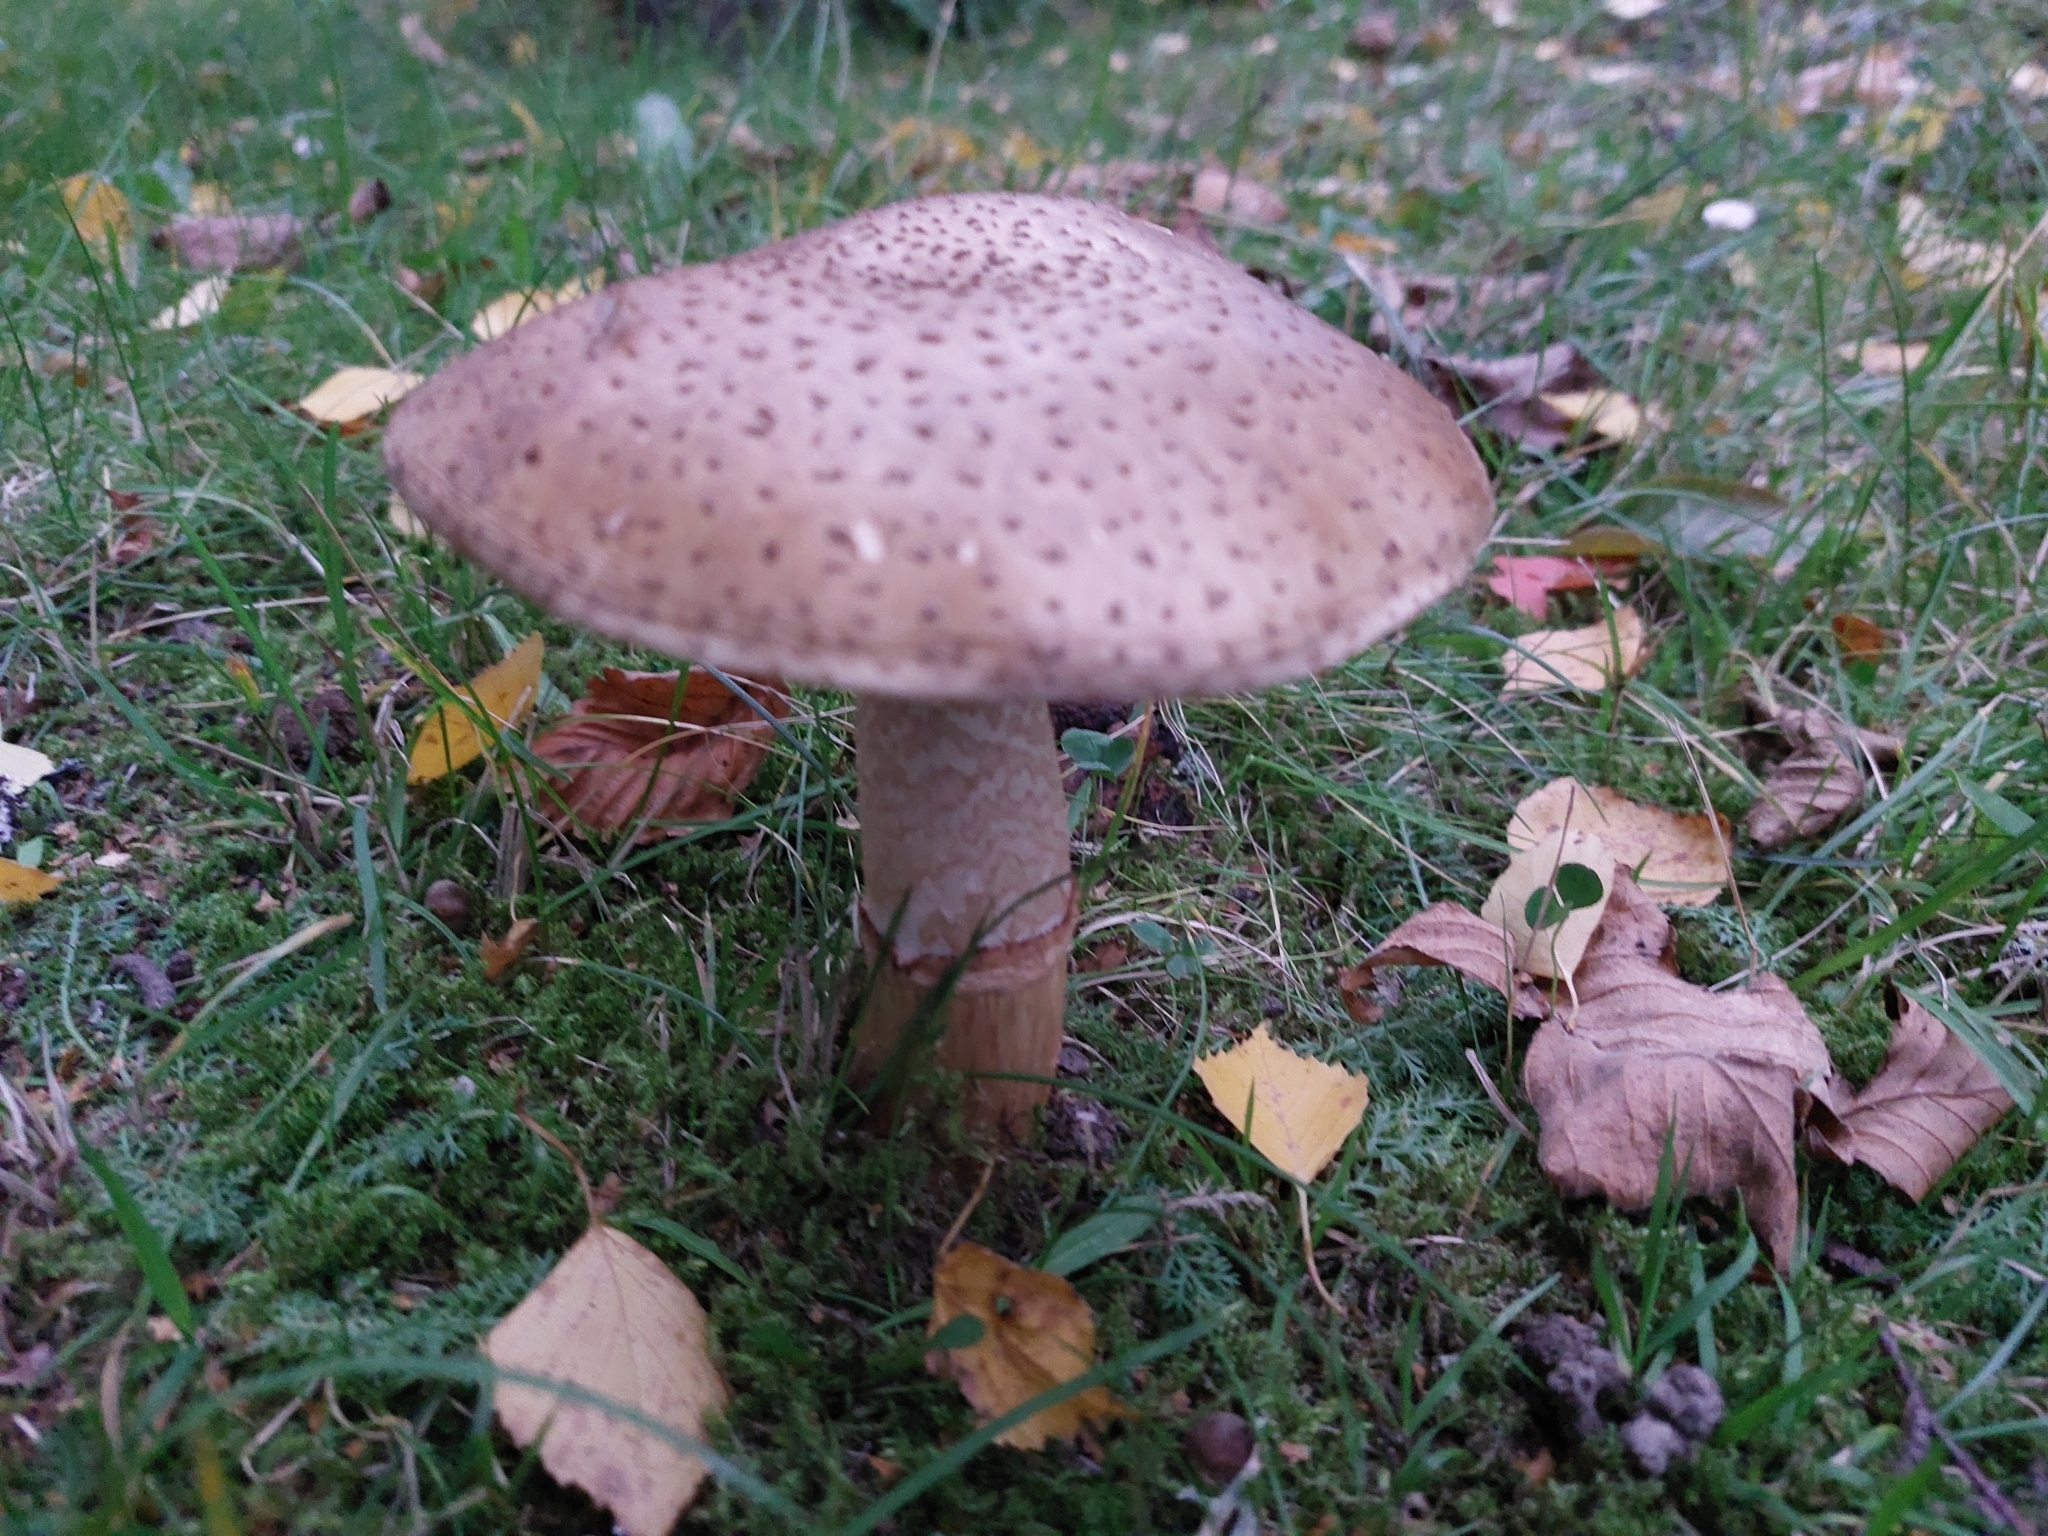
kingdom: Fungi
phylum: Basidiomycota
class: Agaricomycetes
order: Agaricales
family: Amanitaceae
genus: Amanita
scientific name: Amanita rubescens
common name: Blusher
